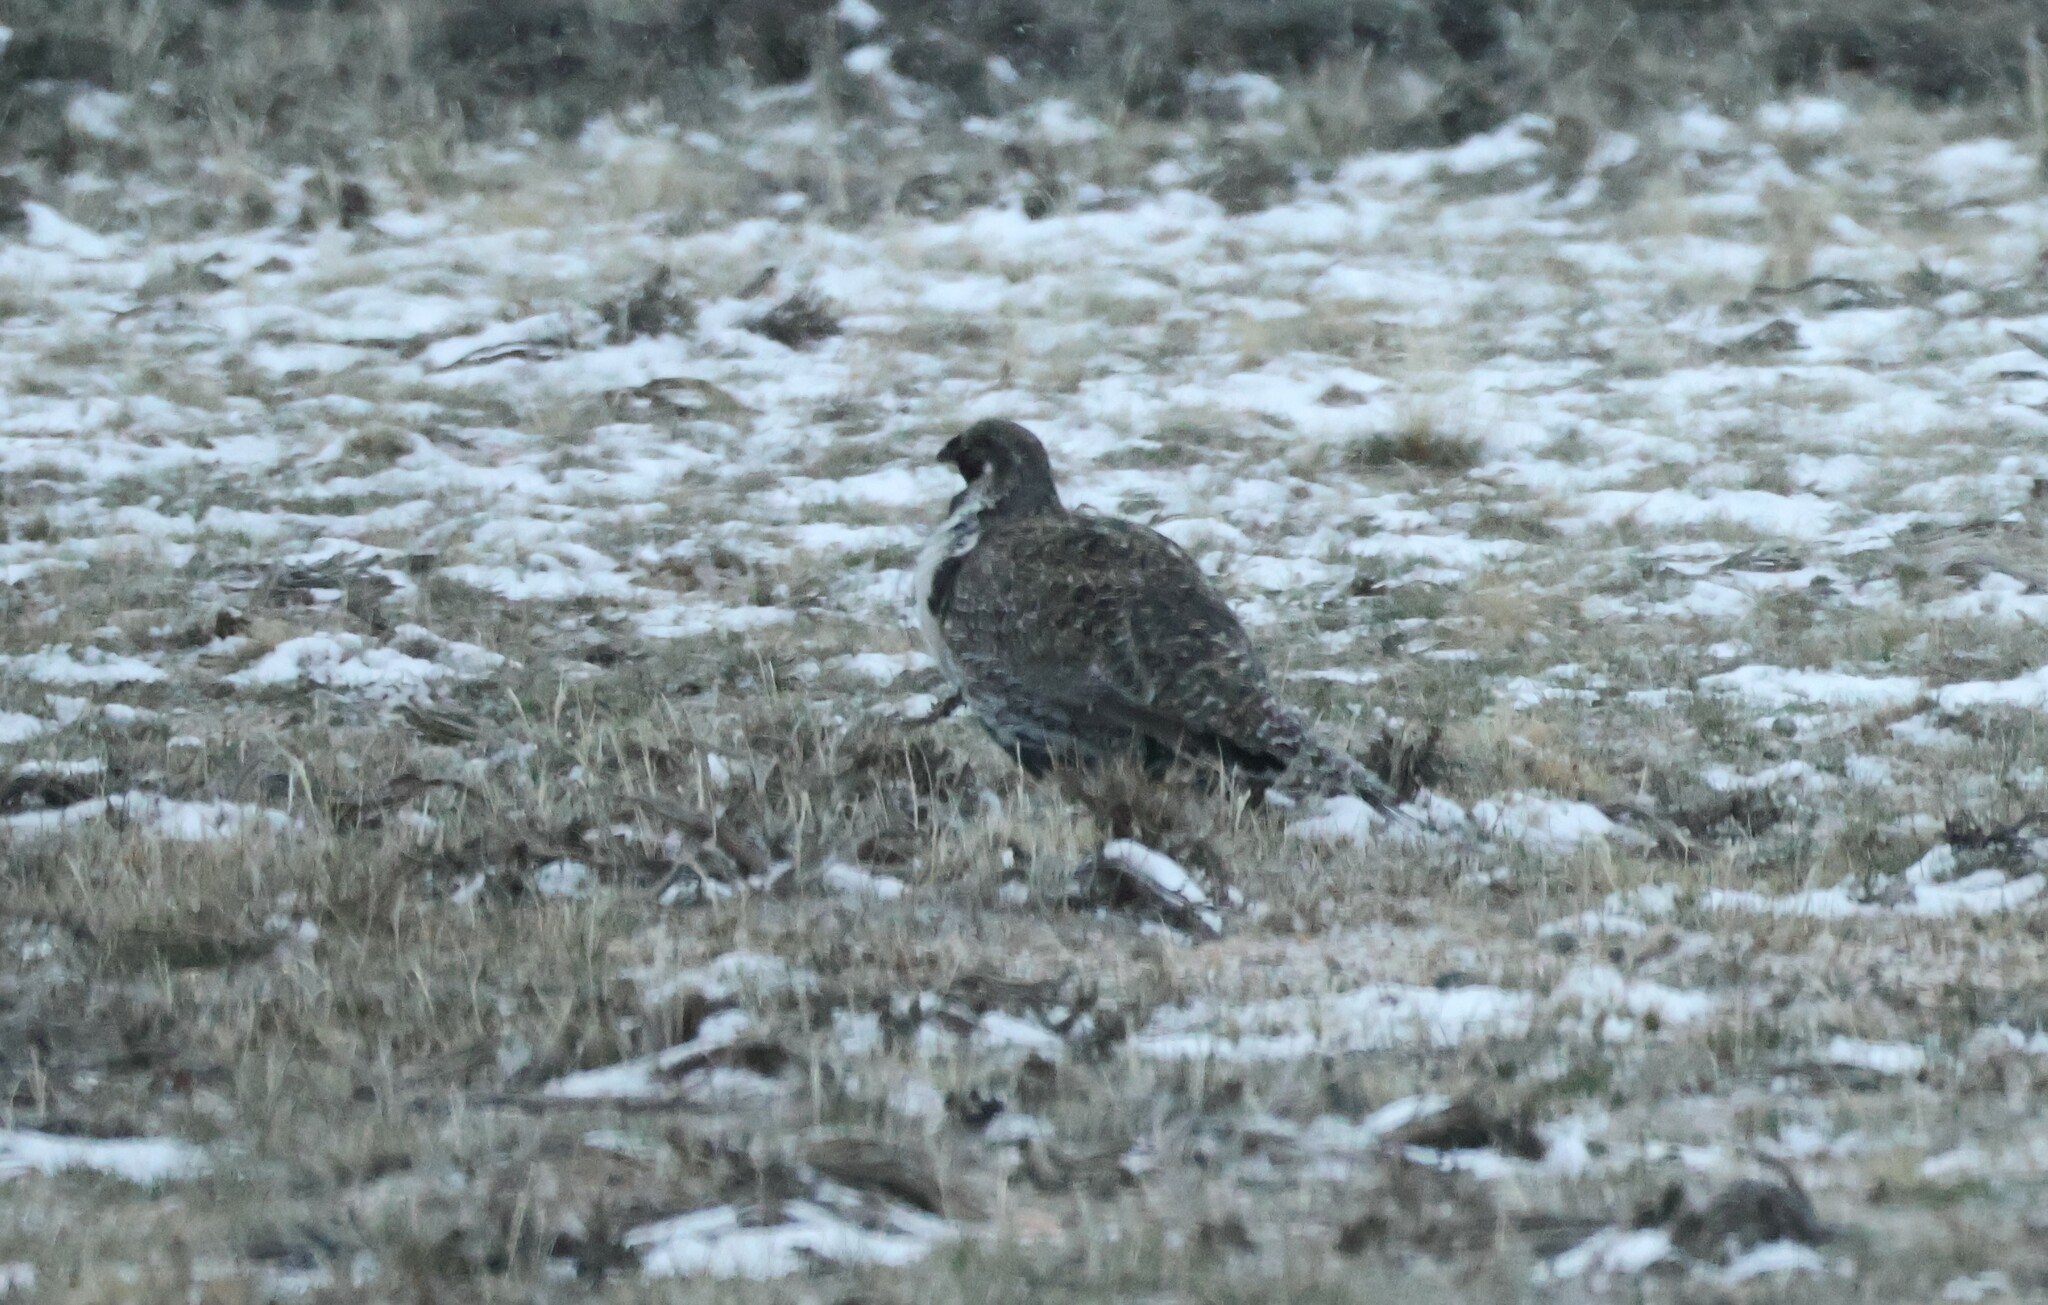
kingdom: Animalia
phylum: Chordata
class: Aves
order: Galliformes
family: Phasianidae
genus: Centrocercus
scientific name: Centrocercus urophasianus
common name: Sage grouse
